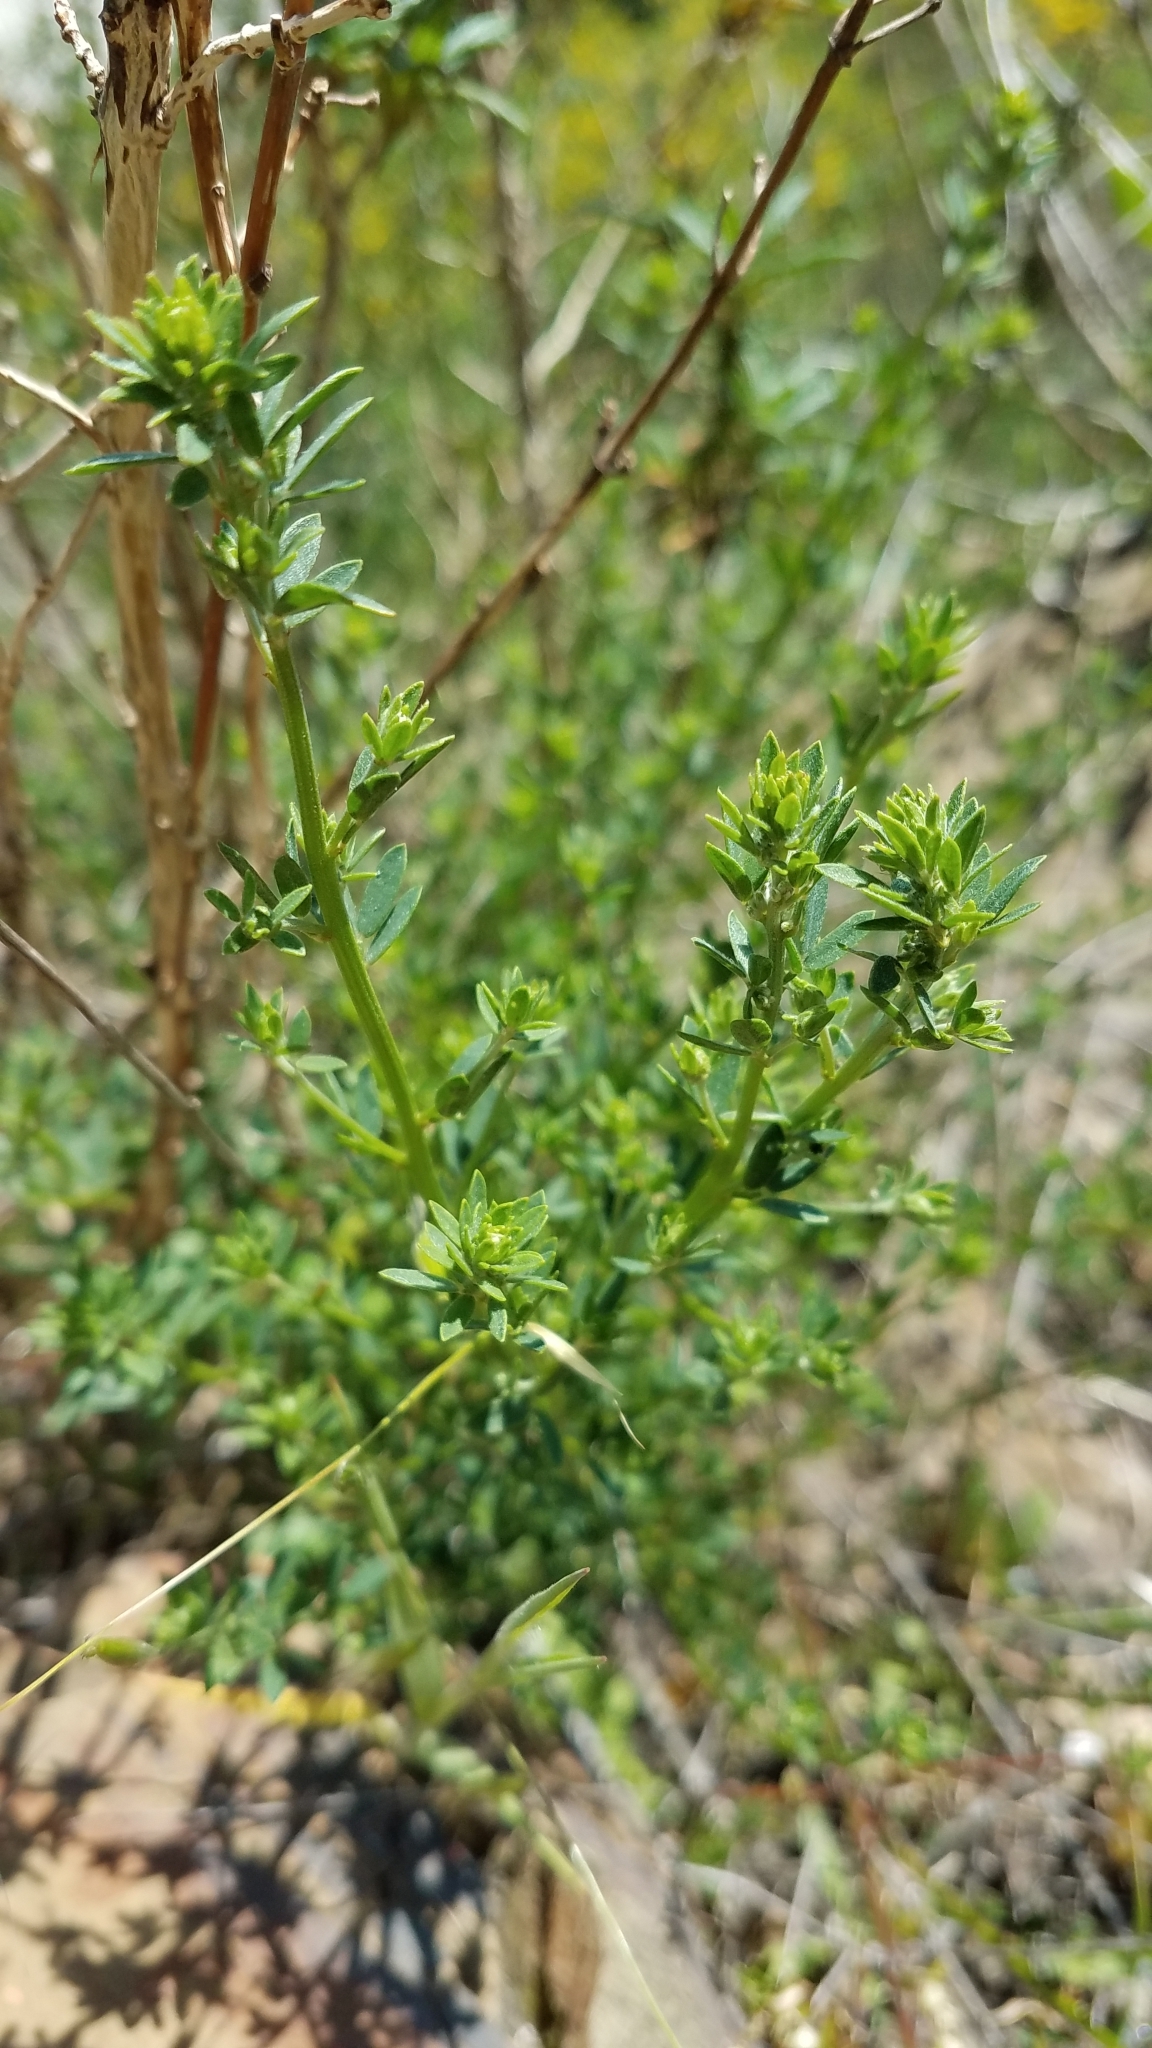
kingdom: Plantae
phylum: Tracheophyta
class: Magnoliopsida
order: Fabales
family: Fabaceae
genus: Acmispon
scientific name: Acmispon glaber
